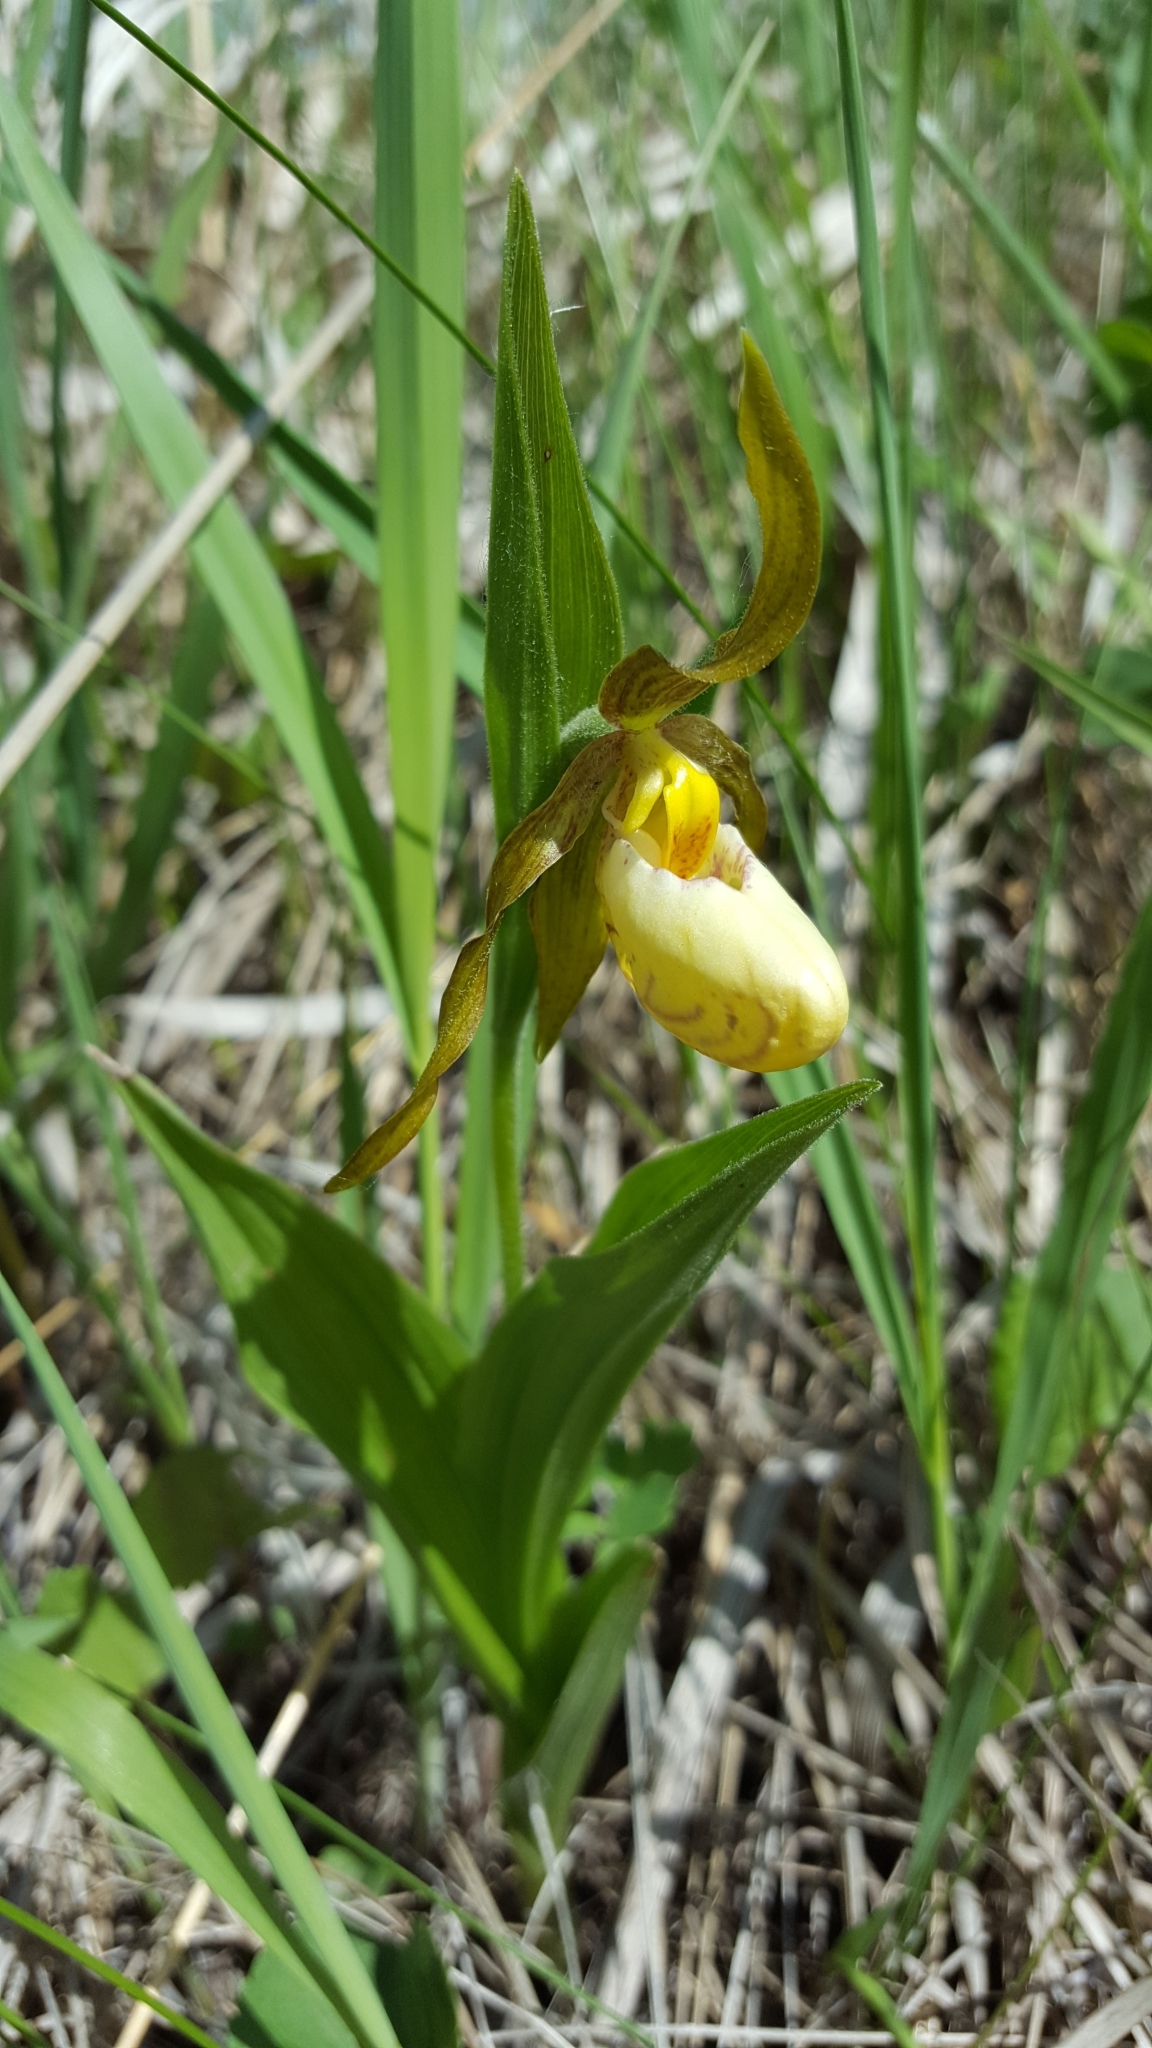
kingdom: Plantae
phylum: Tracheophyta
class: Liliopsida
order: Asparagales
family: Orchidaceae
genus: Cypripedium
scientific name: Cypripedium andrewsii
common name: Andrew's lady's-slipper
